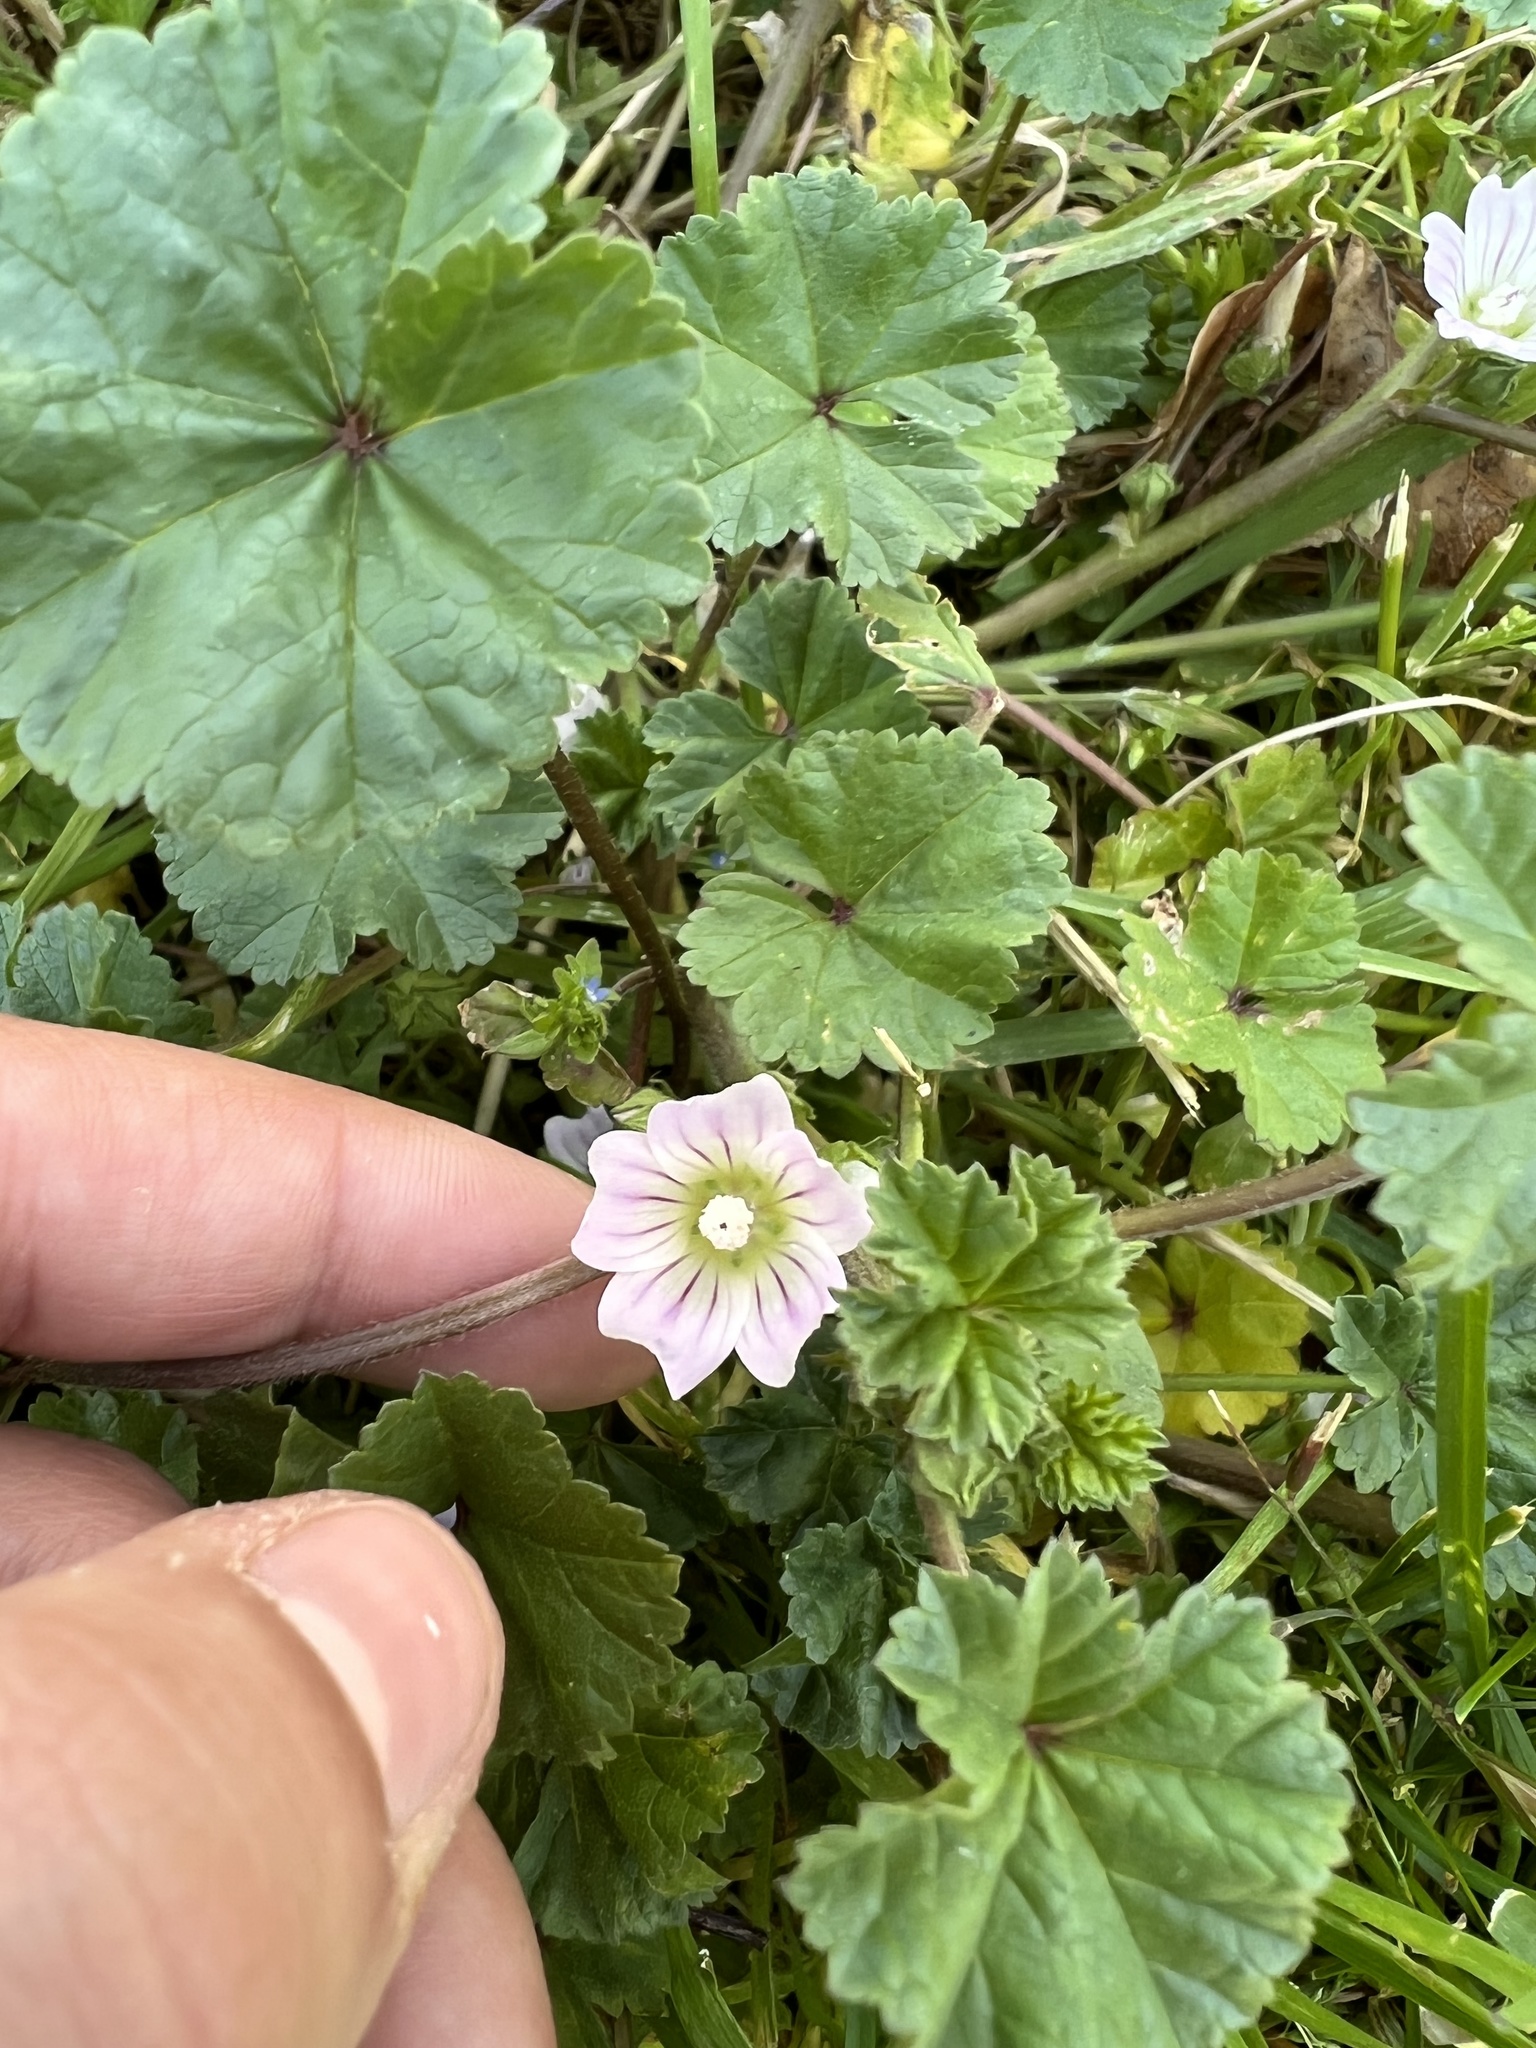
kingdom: Plantae
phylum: Tracheophyta
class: Magnoliopsida
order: Malvales
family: Malvaceae
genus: Malva
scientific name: Malva neglecta
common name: Common mallow
